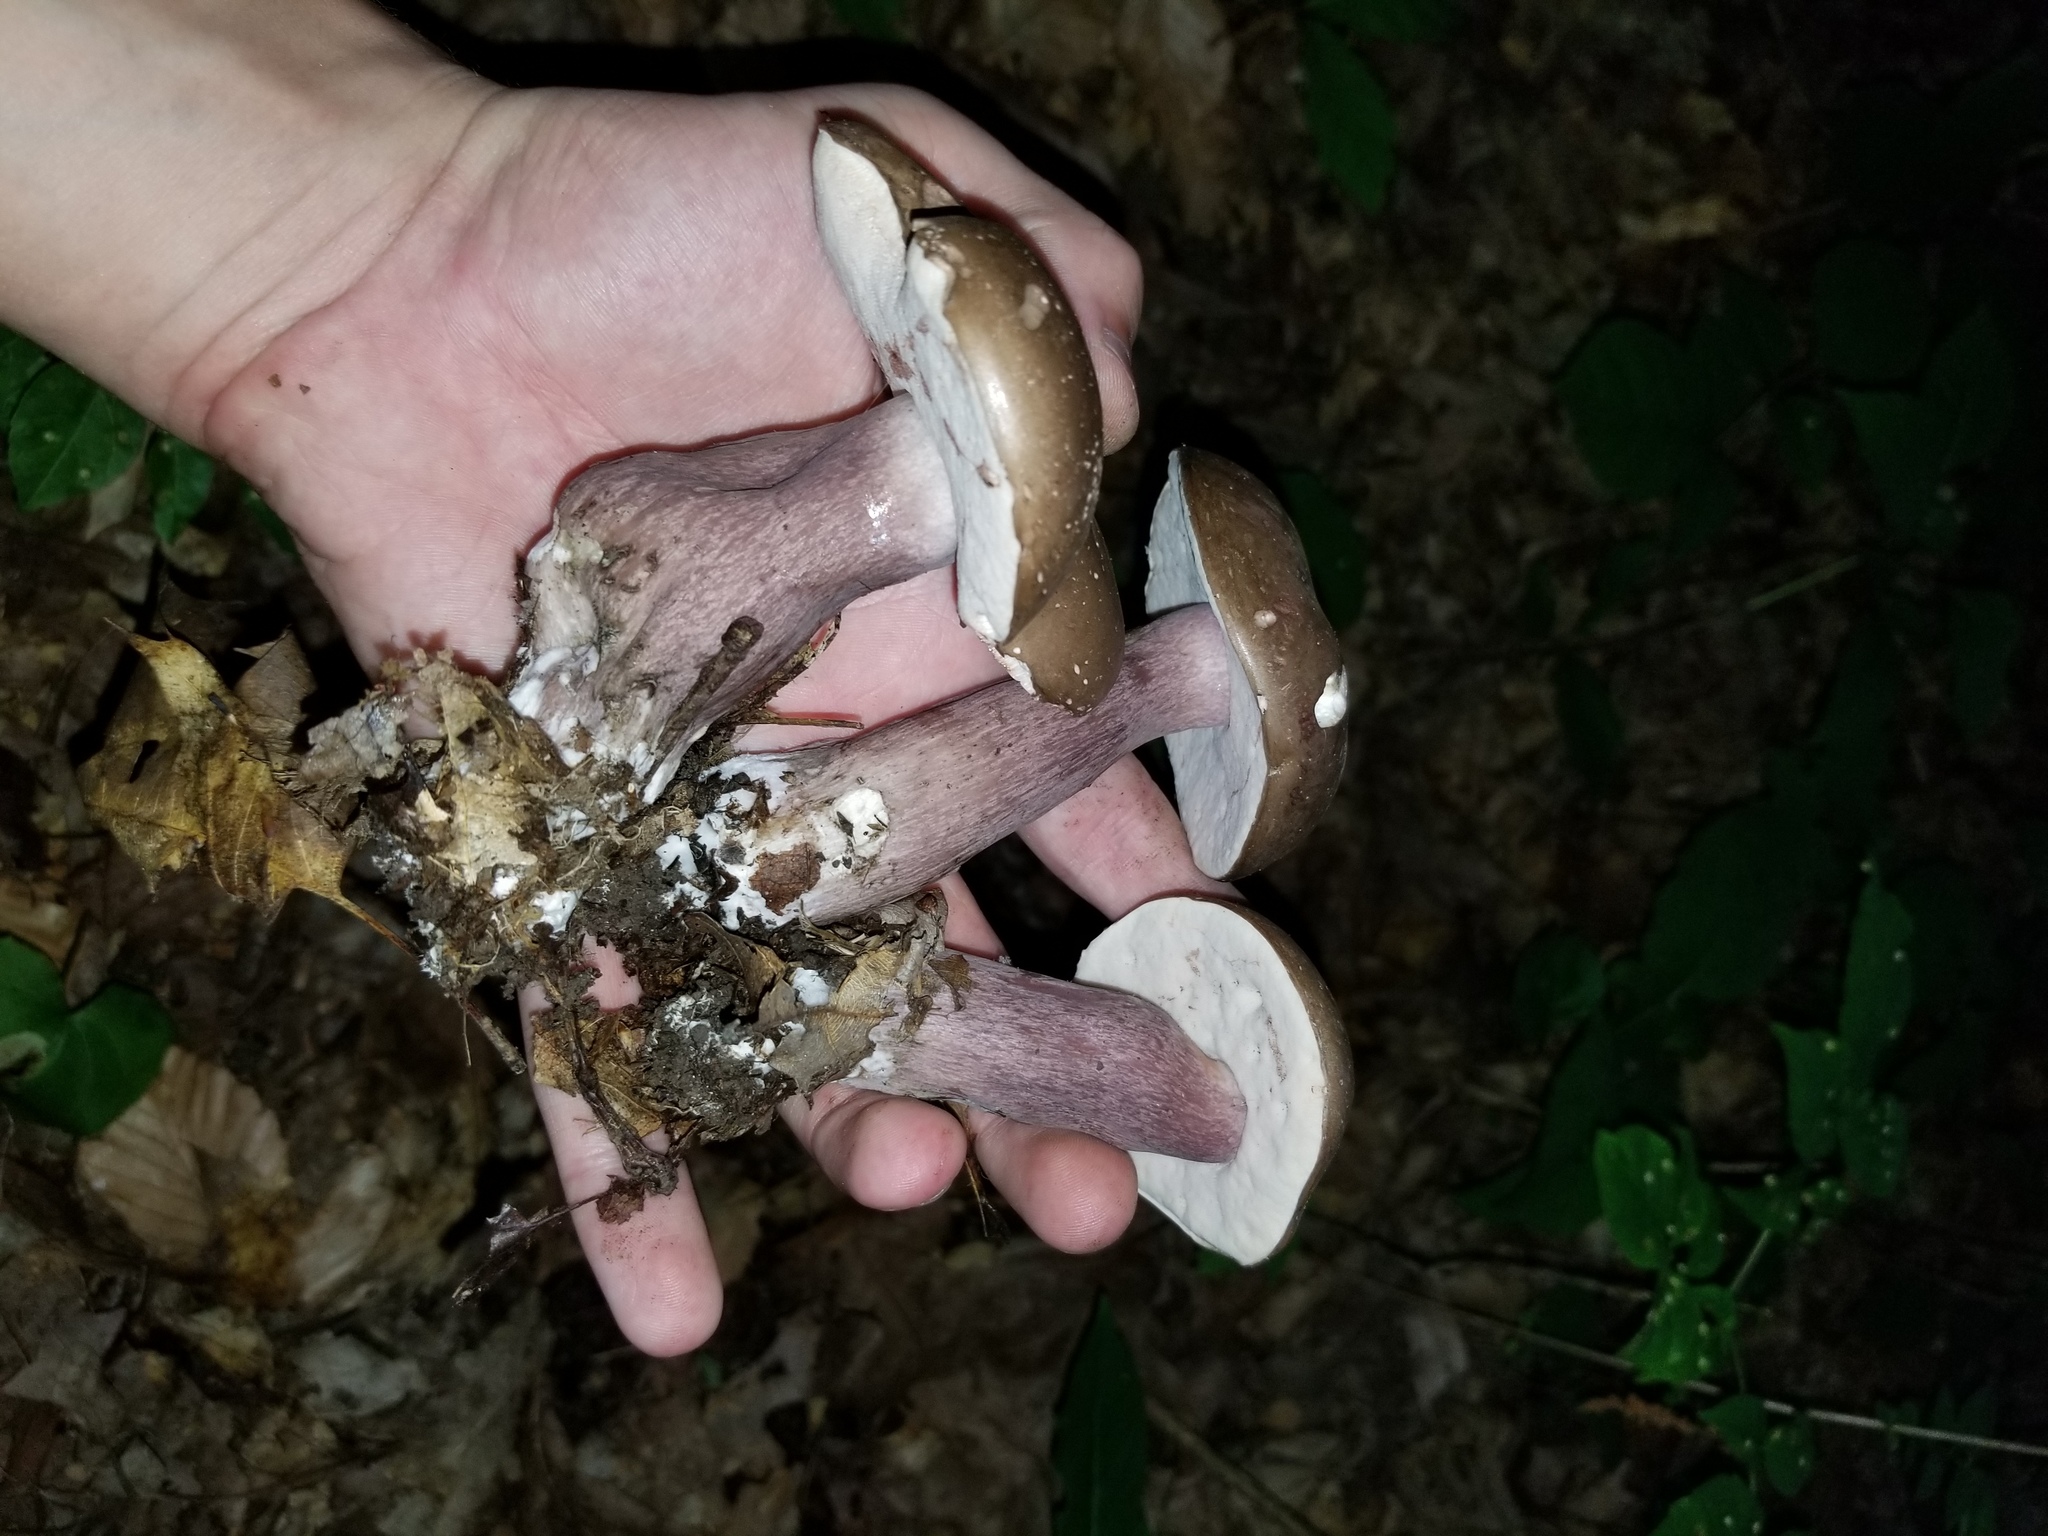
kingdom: Fungi
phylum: Basidiomycota
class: Agaricomycetes
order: Boletales
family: Boletaceae
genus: Tylopilus
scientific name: Tylopilus plumbeoviolaceus
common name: Violet gray bolete
